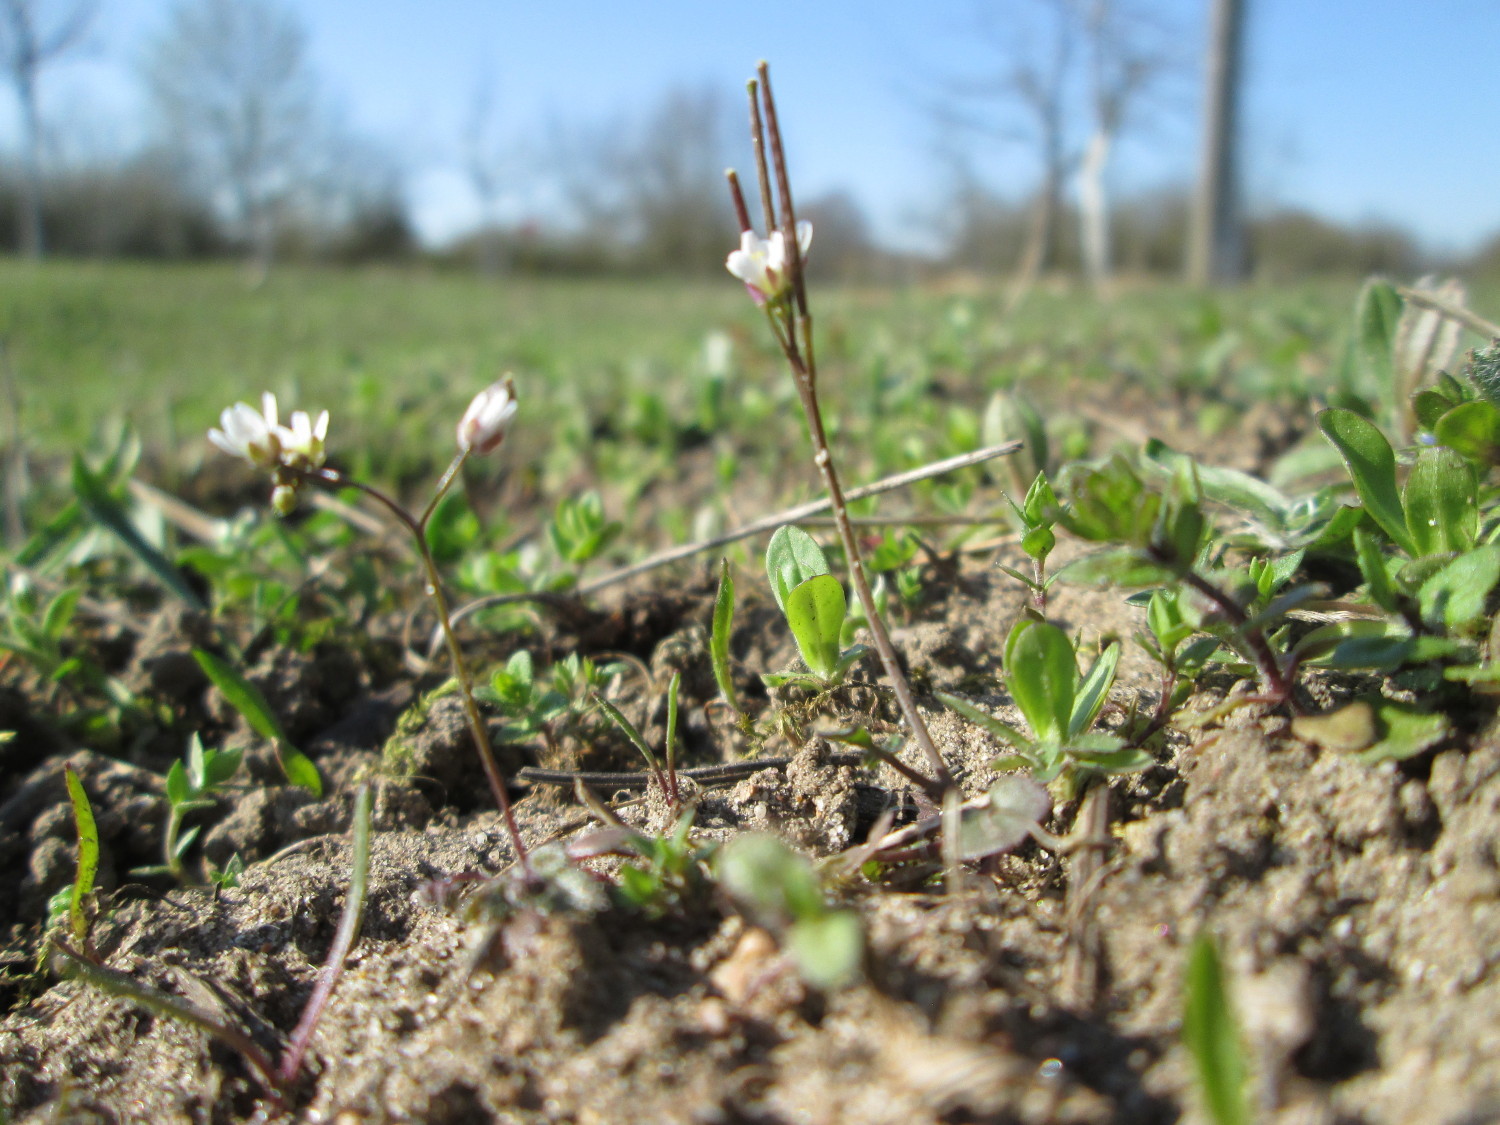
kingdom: Plantae
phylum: Tracheophyta
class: Magnoliopsida
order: Brassicales
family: Brassicaceae
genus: Cardamine
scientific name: Cardamine hirsuta
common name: Hairy bittercress
